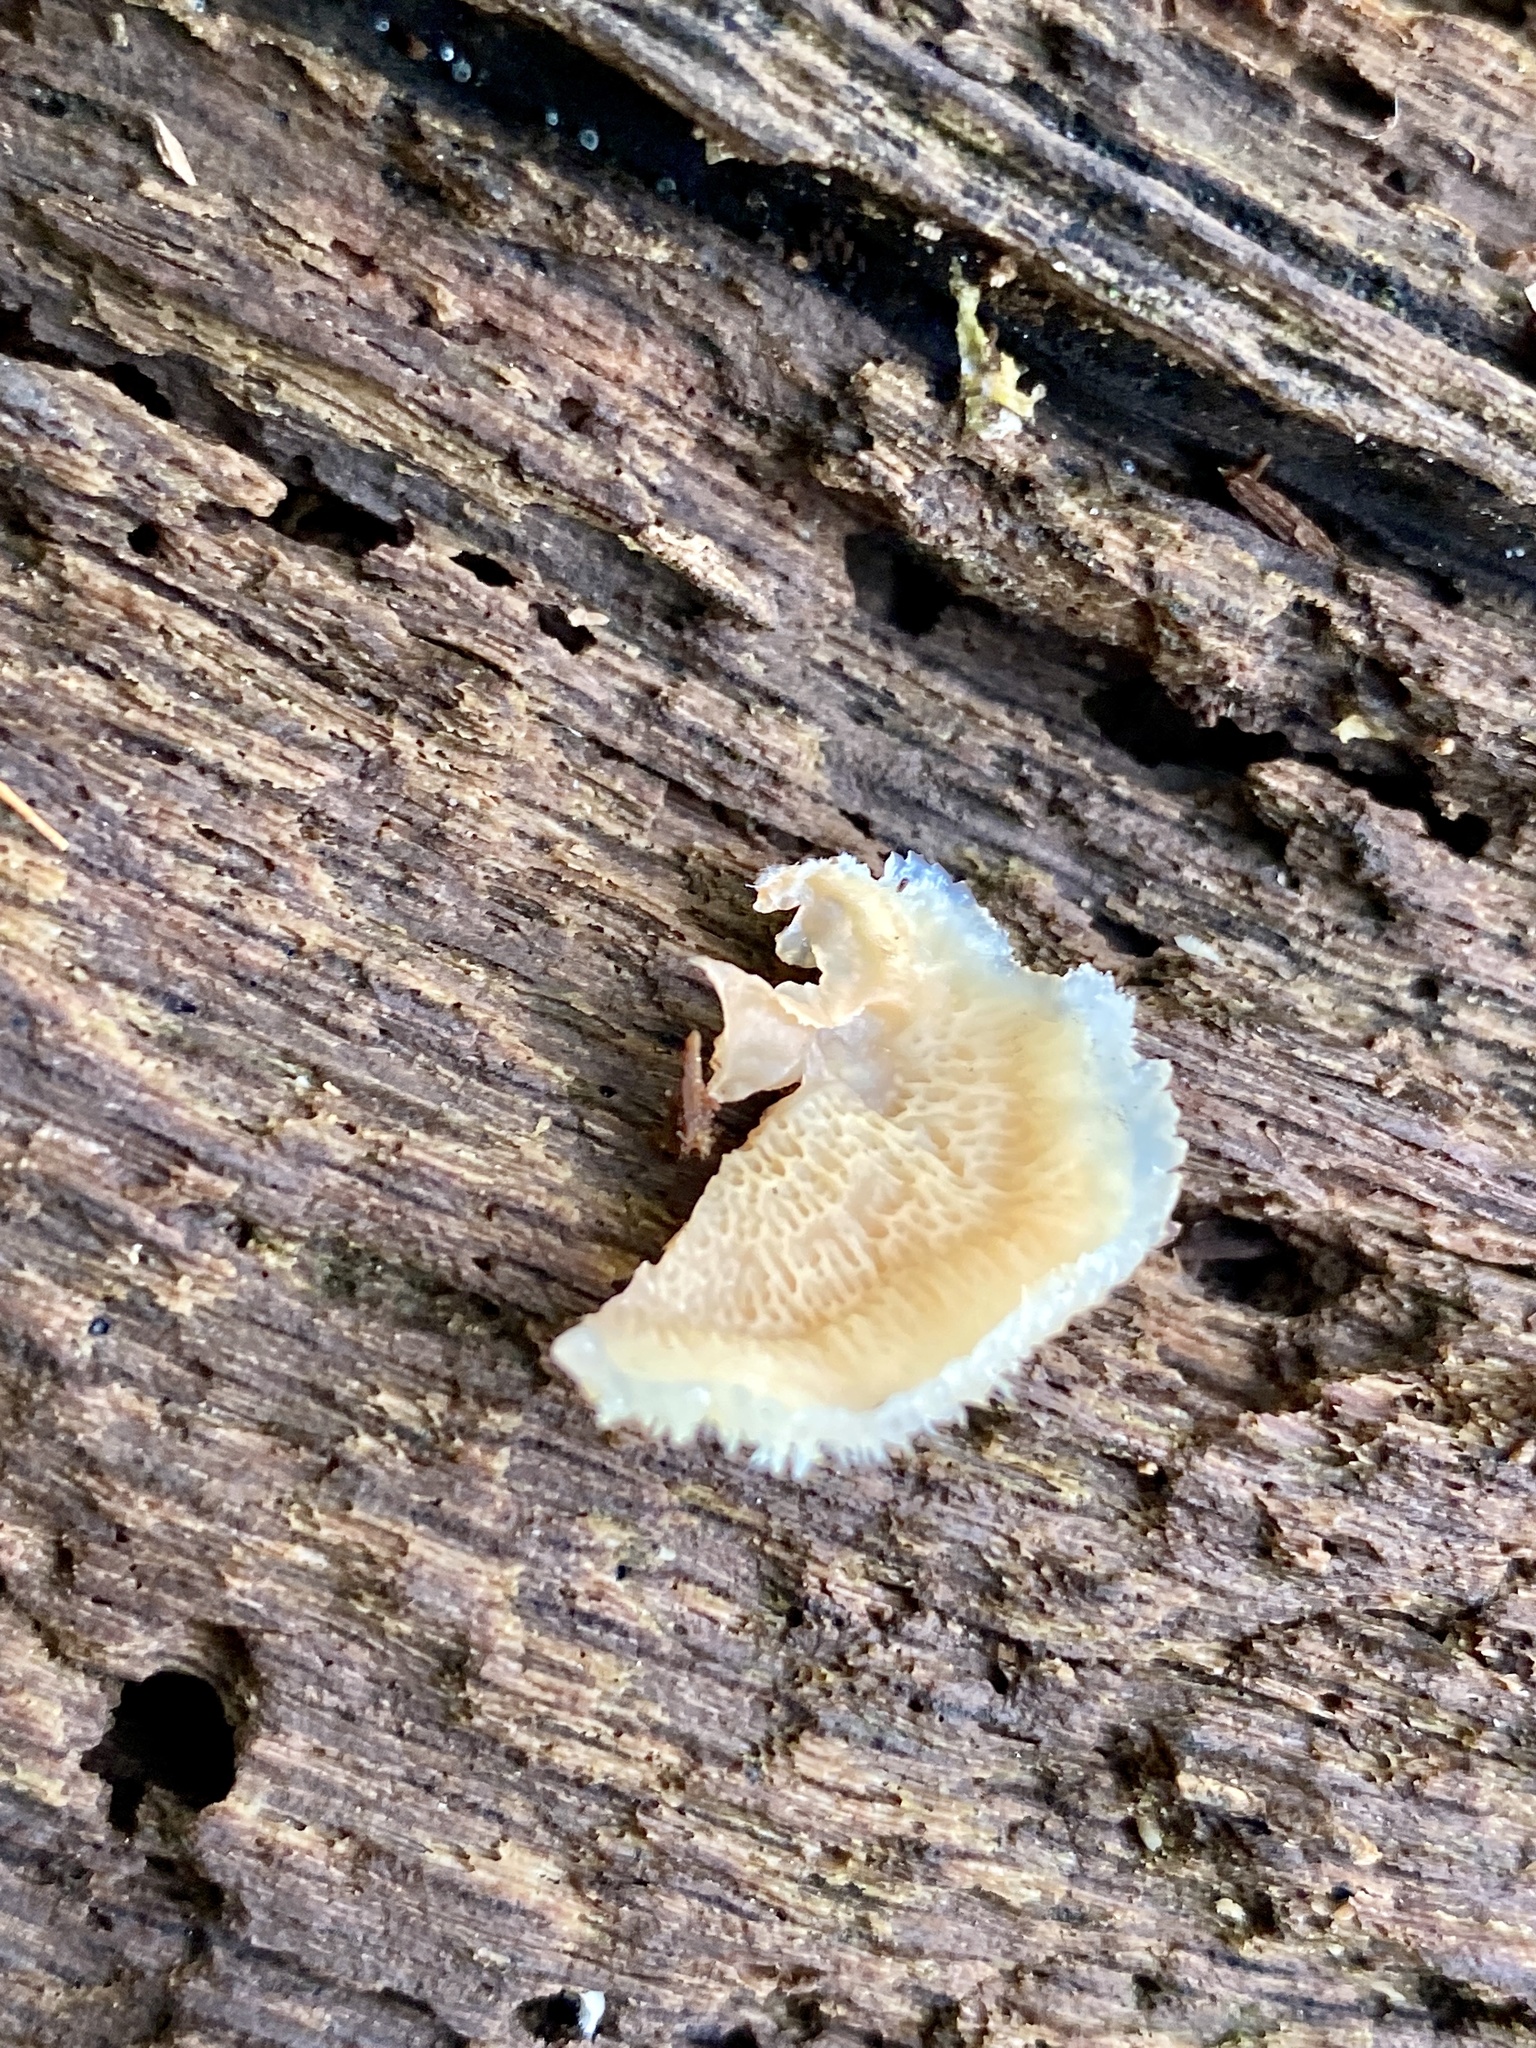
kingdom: Fungi
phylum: Basidiomycota
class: Agaricomycetes
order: Polyporales
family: Meruliaceae
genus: Phlebia
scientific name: Phlebia tremellosa
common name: Jelly rot
